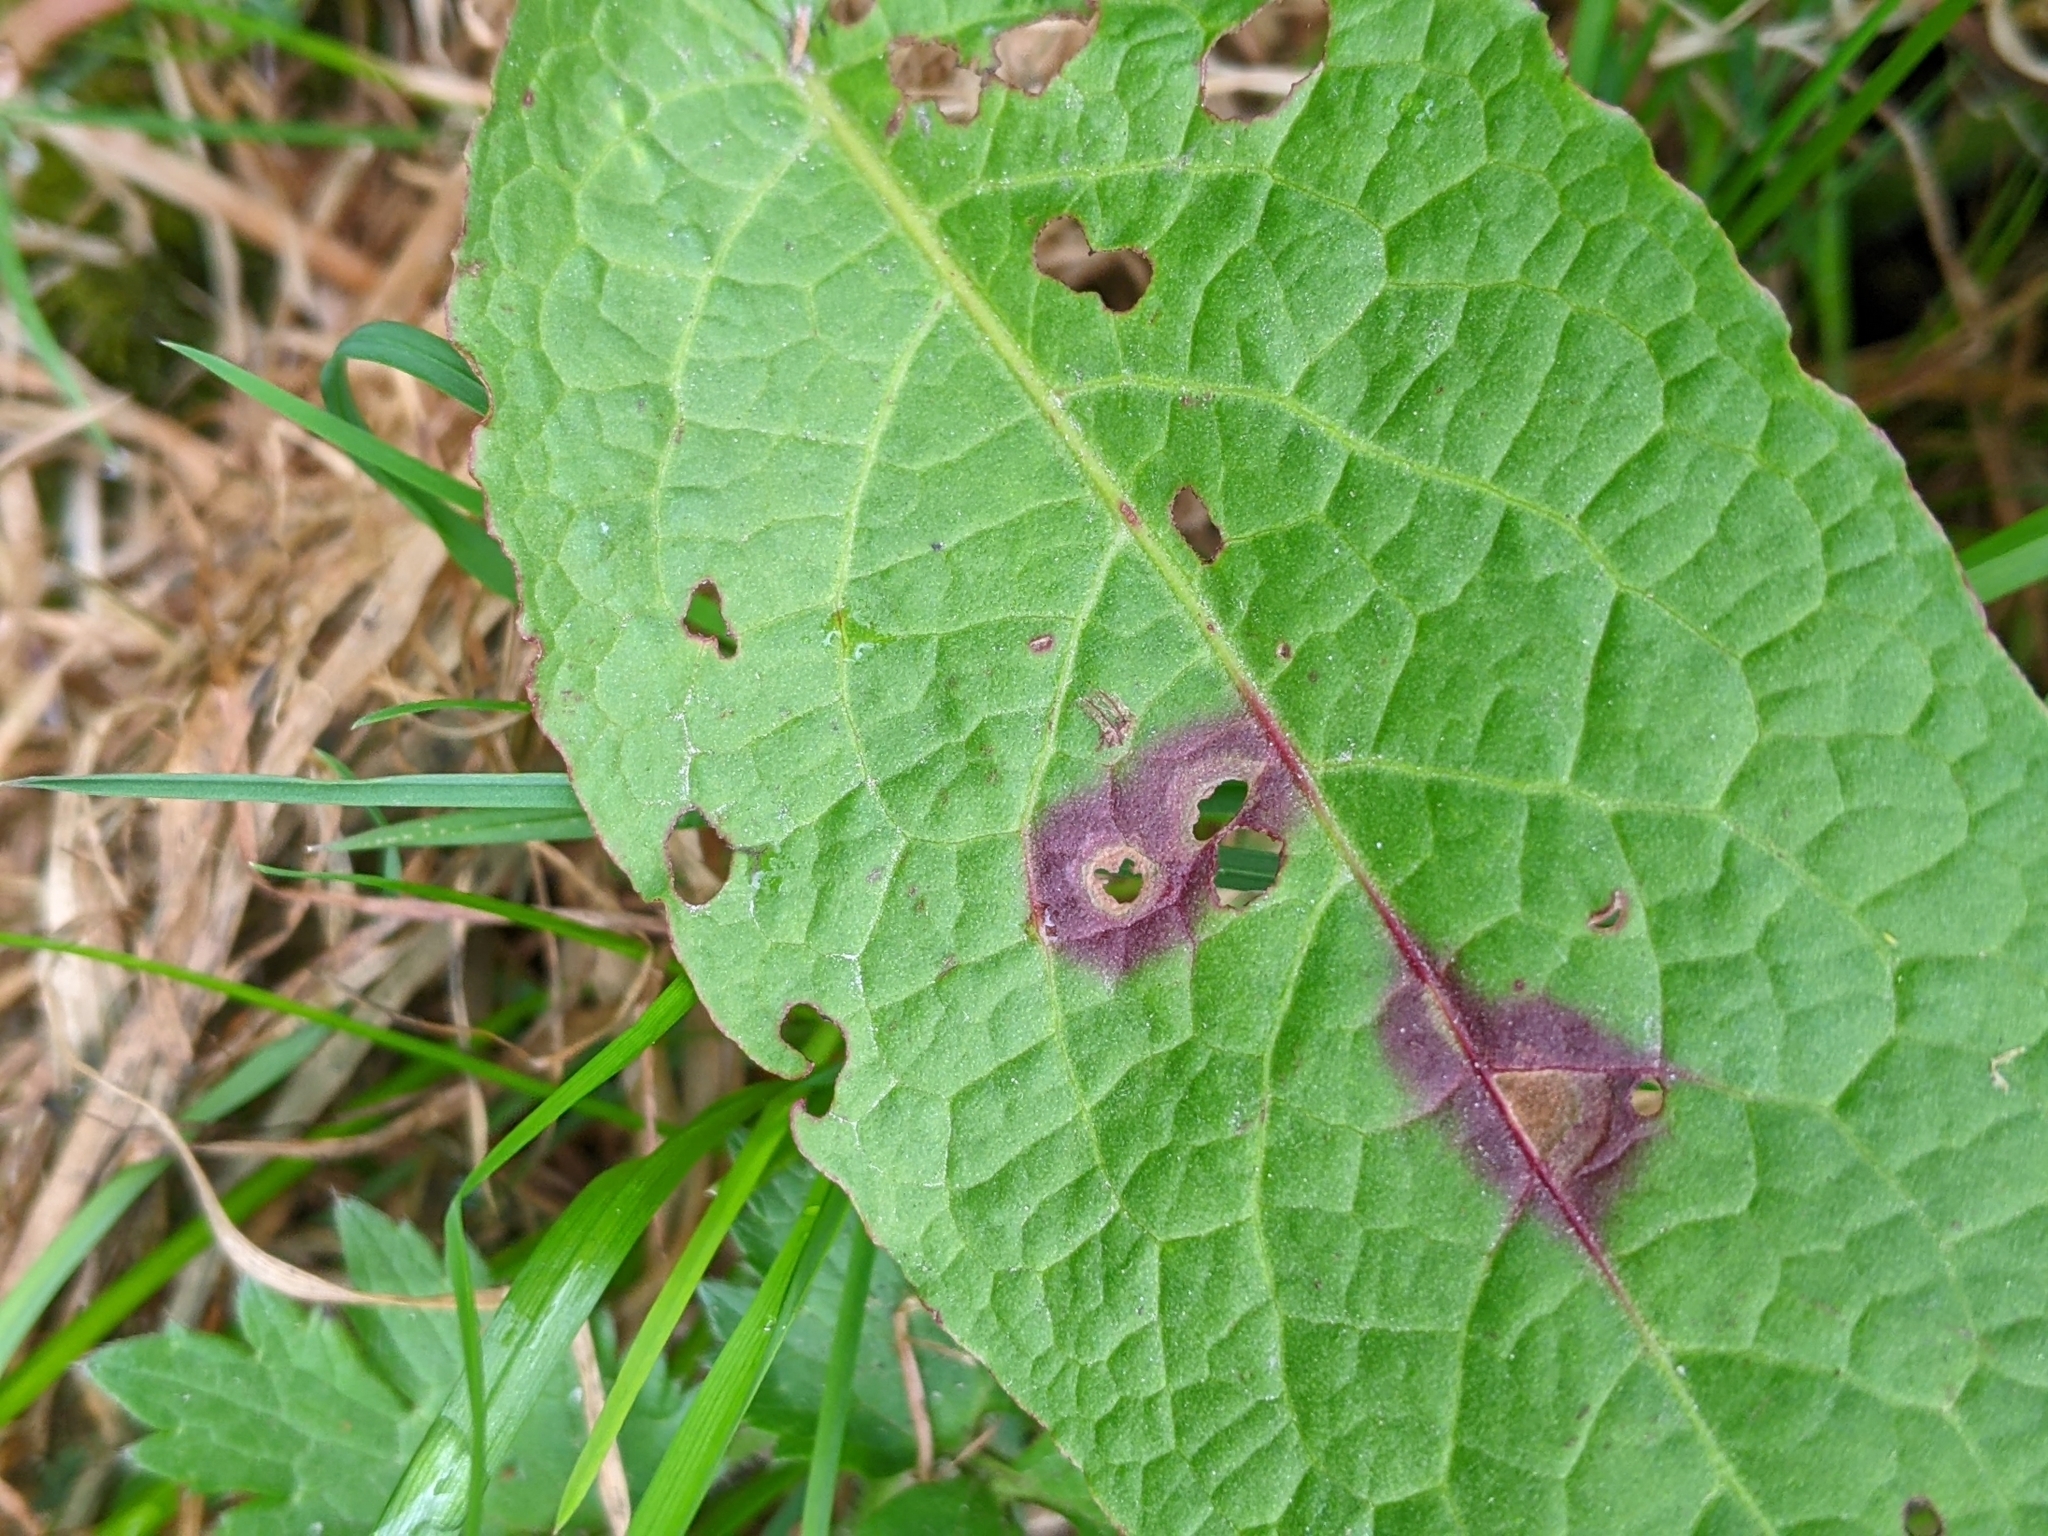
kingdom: Fungi
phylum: Ascomycota
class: Dothideomycetes
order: Mycosphaerellales
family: Mycosphaerellaceae
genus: Ramularia
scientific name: Ramularia rubella
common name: Red dock spot
